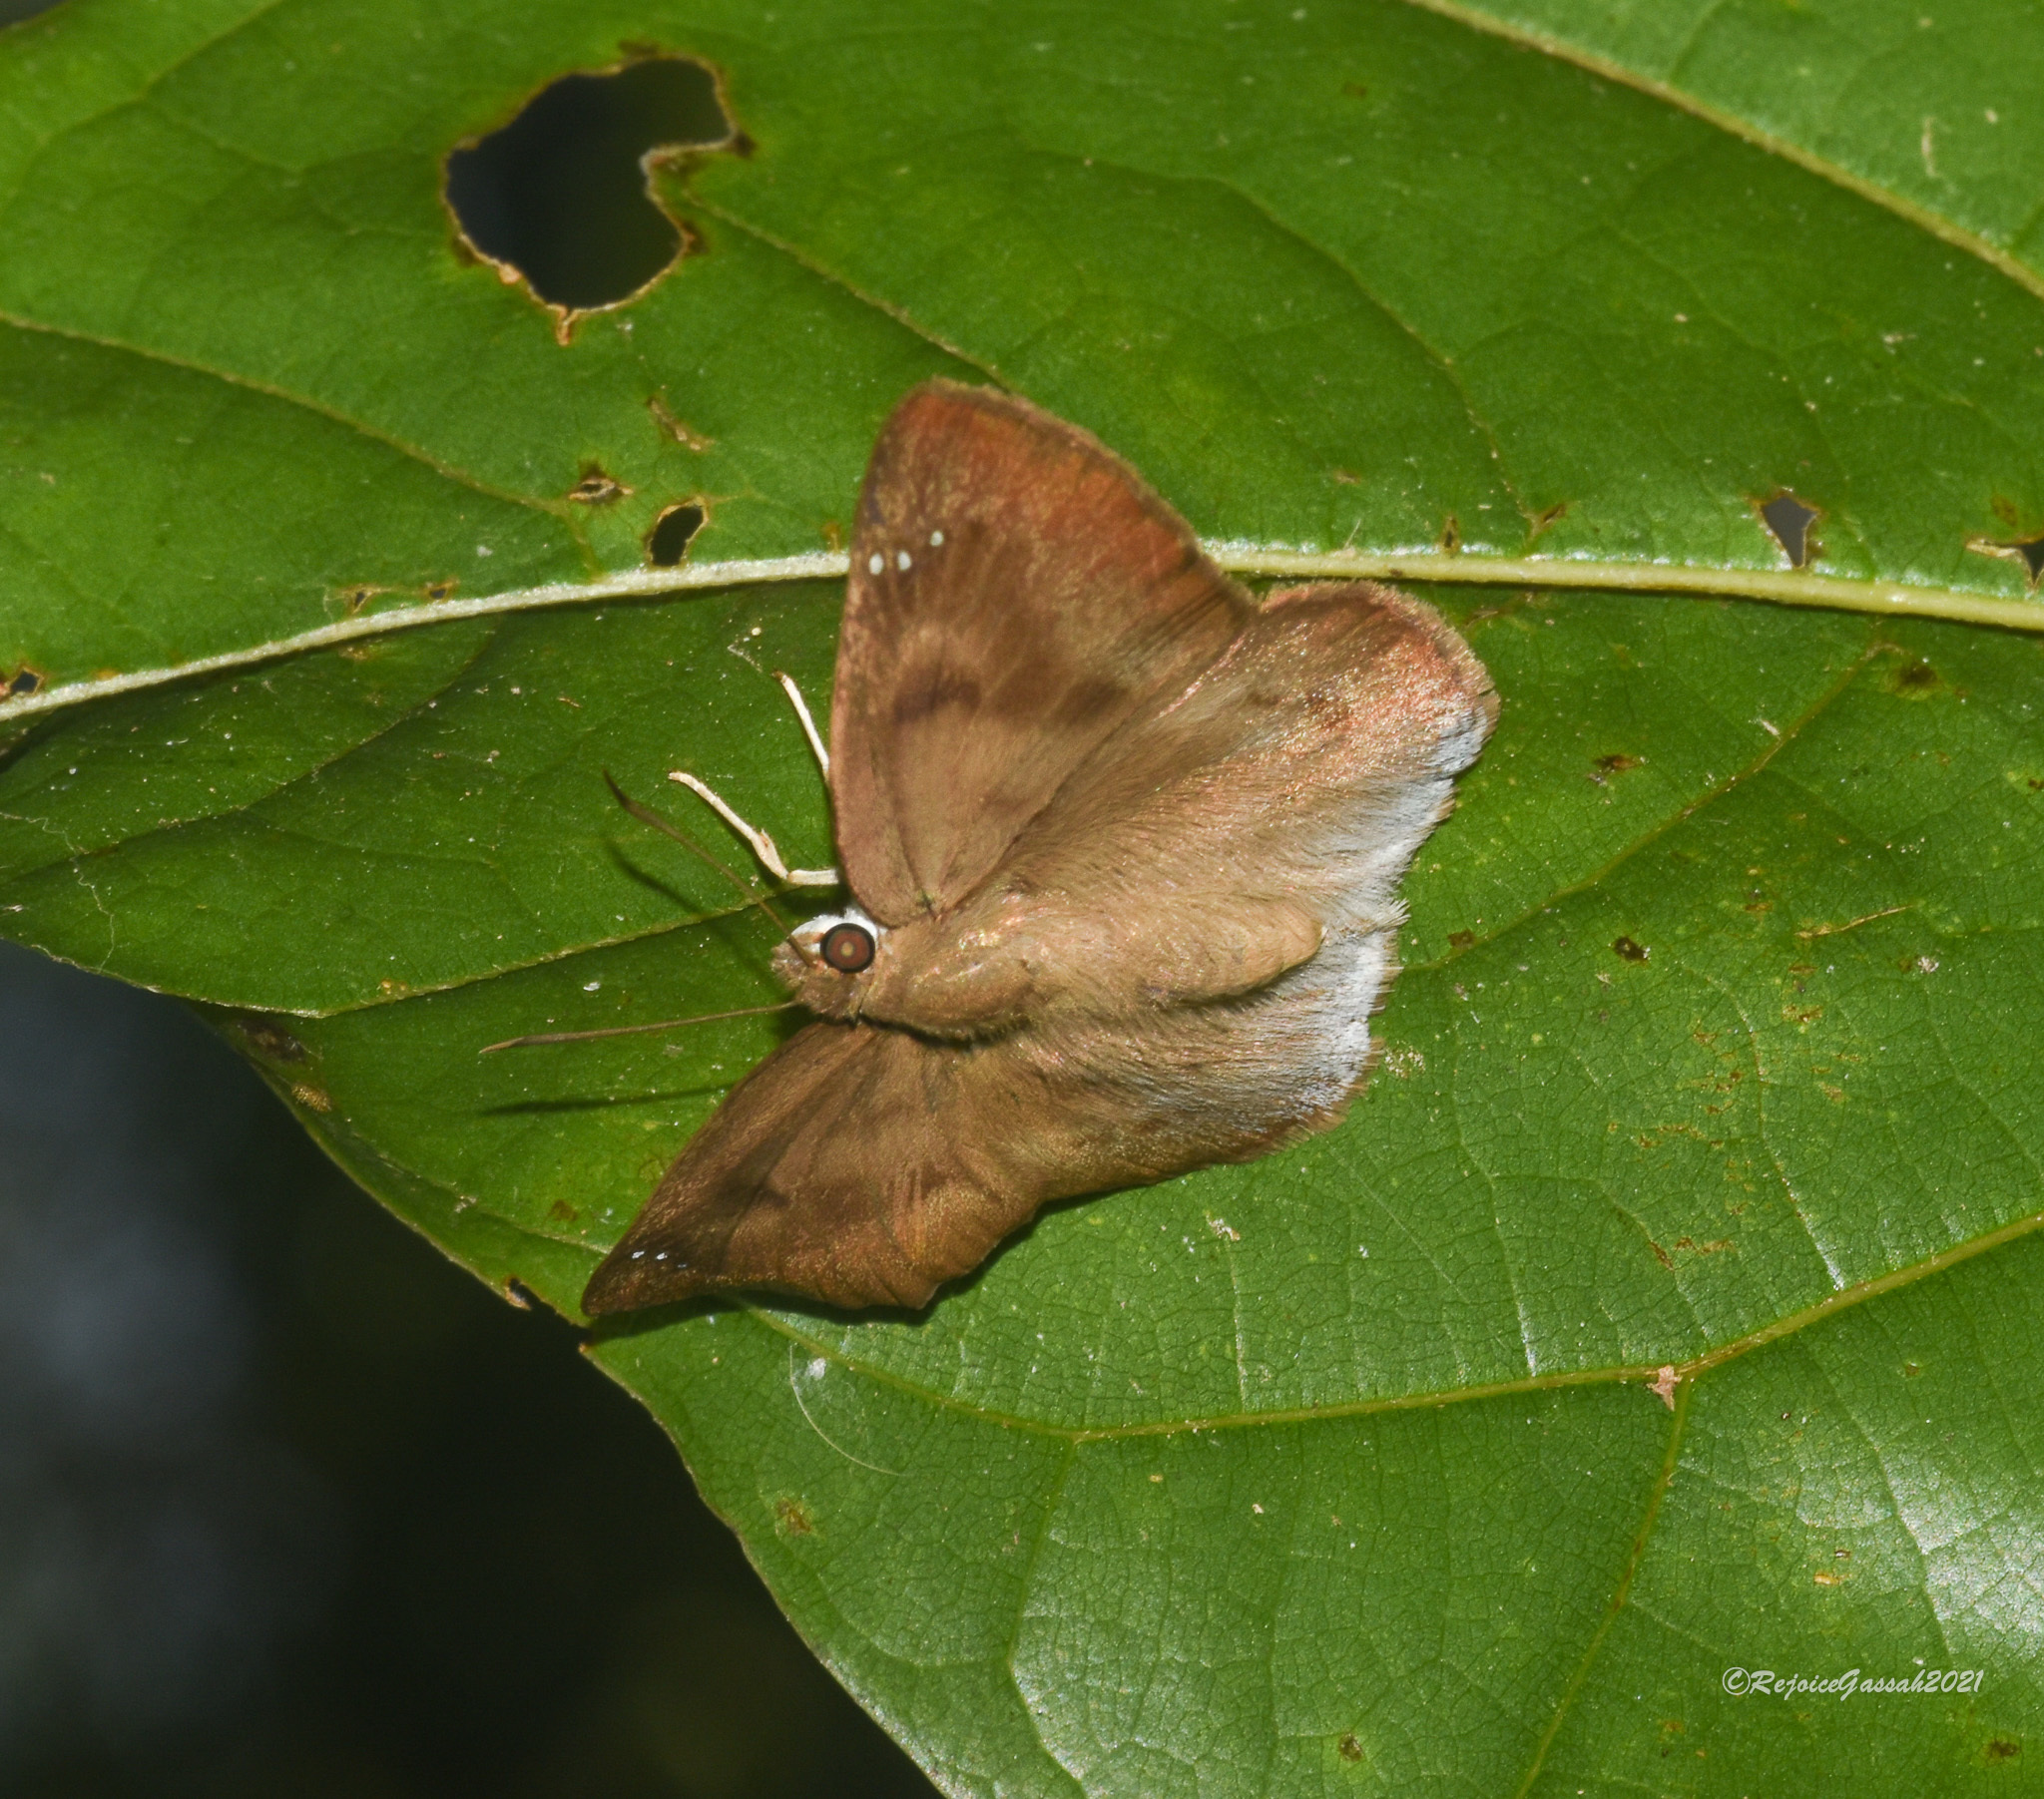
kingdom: Animalia
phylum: Arthropoda
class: Insecta
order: Lepidoptera
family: Hesperiidae
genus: Tagiades
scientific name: Tagiades japetus
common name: Pied flat
